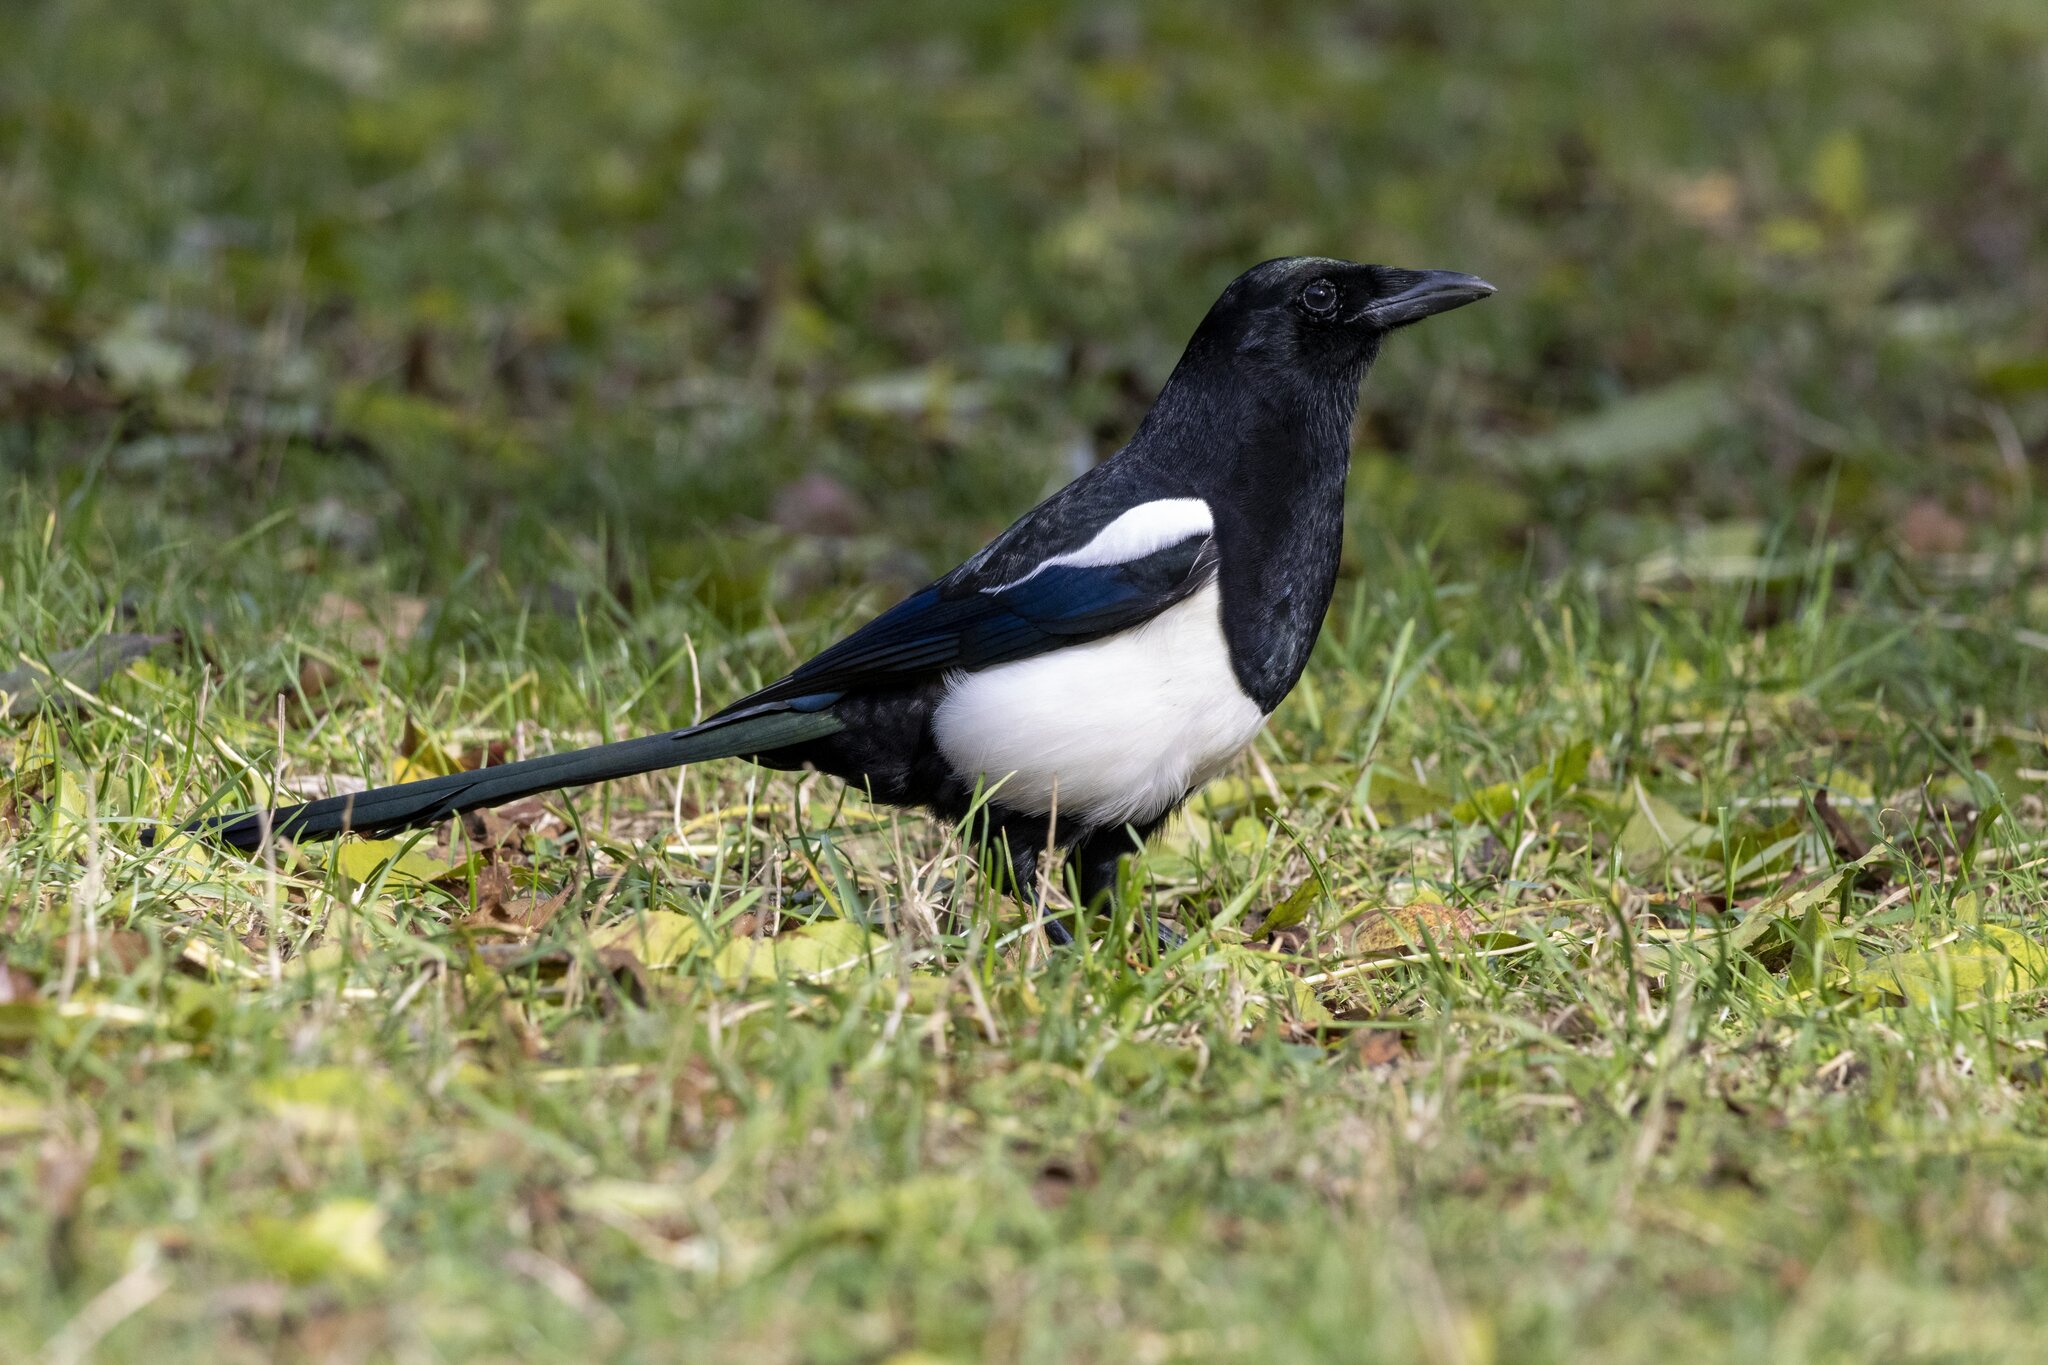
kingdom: Animalia
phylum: Chordata
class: Aves
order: Passeriformes
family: Corvidae
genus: Pica
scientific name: Pica pica
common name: Eurasian magpie
